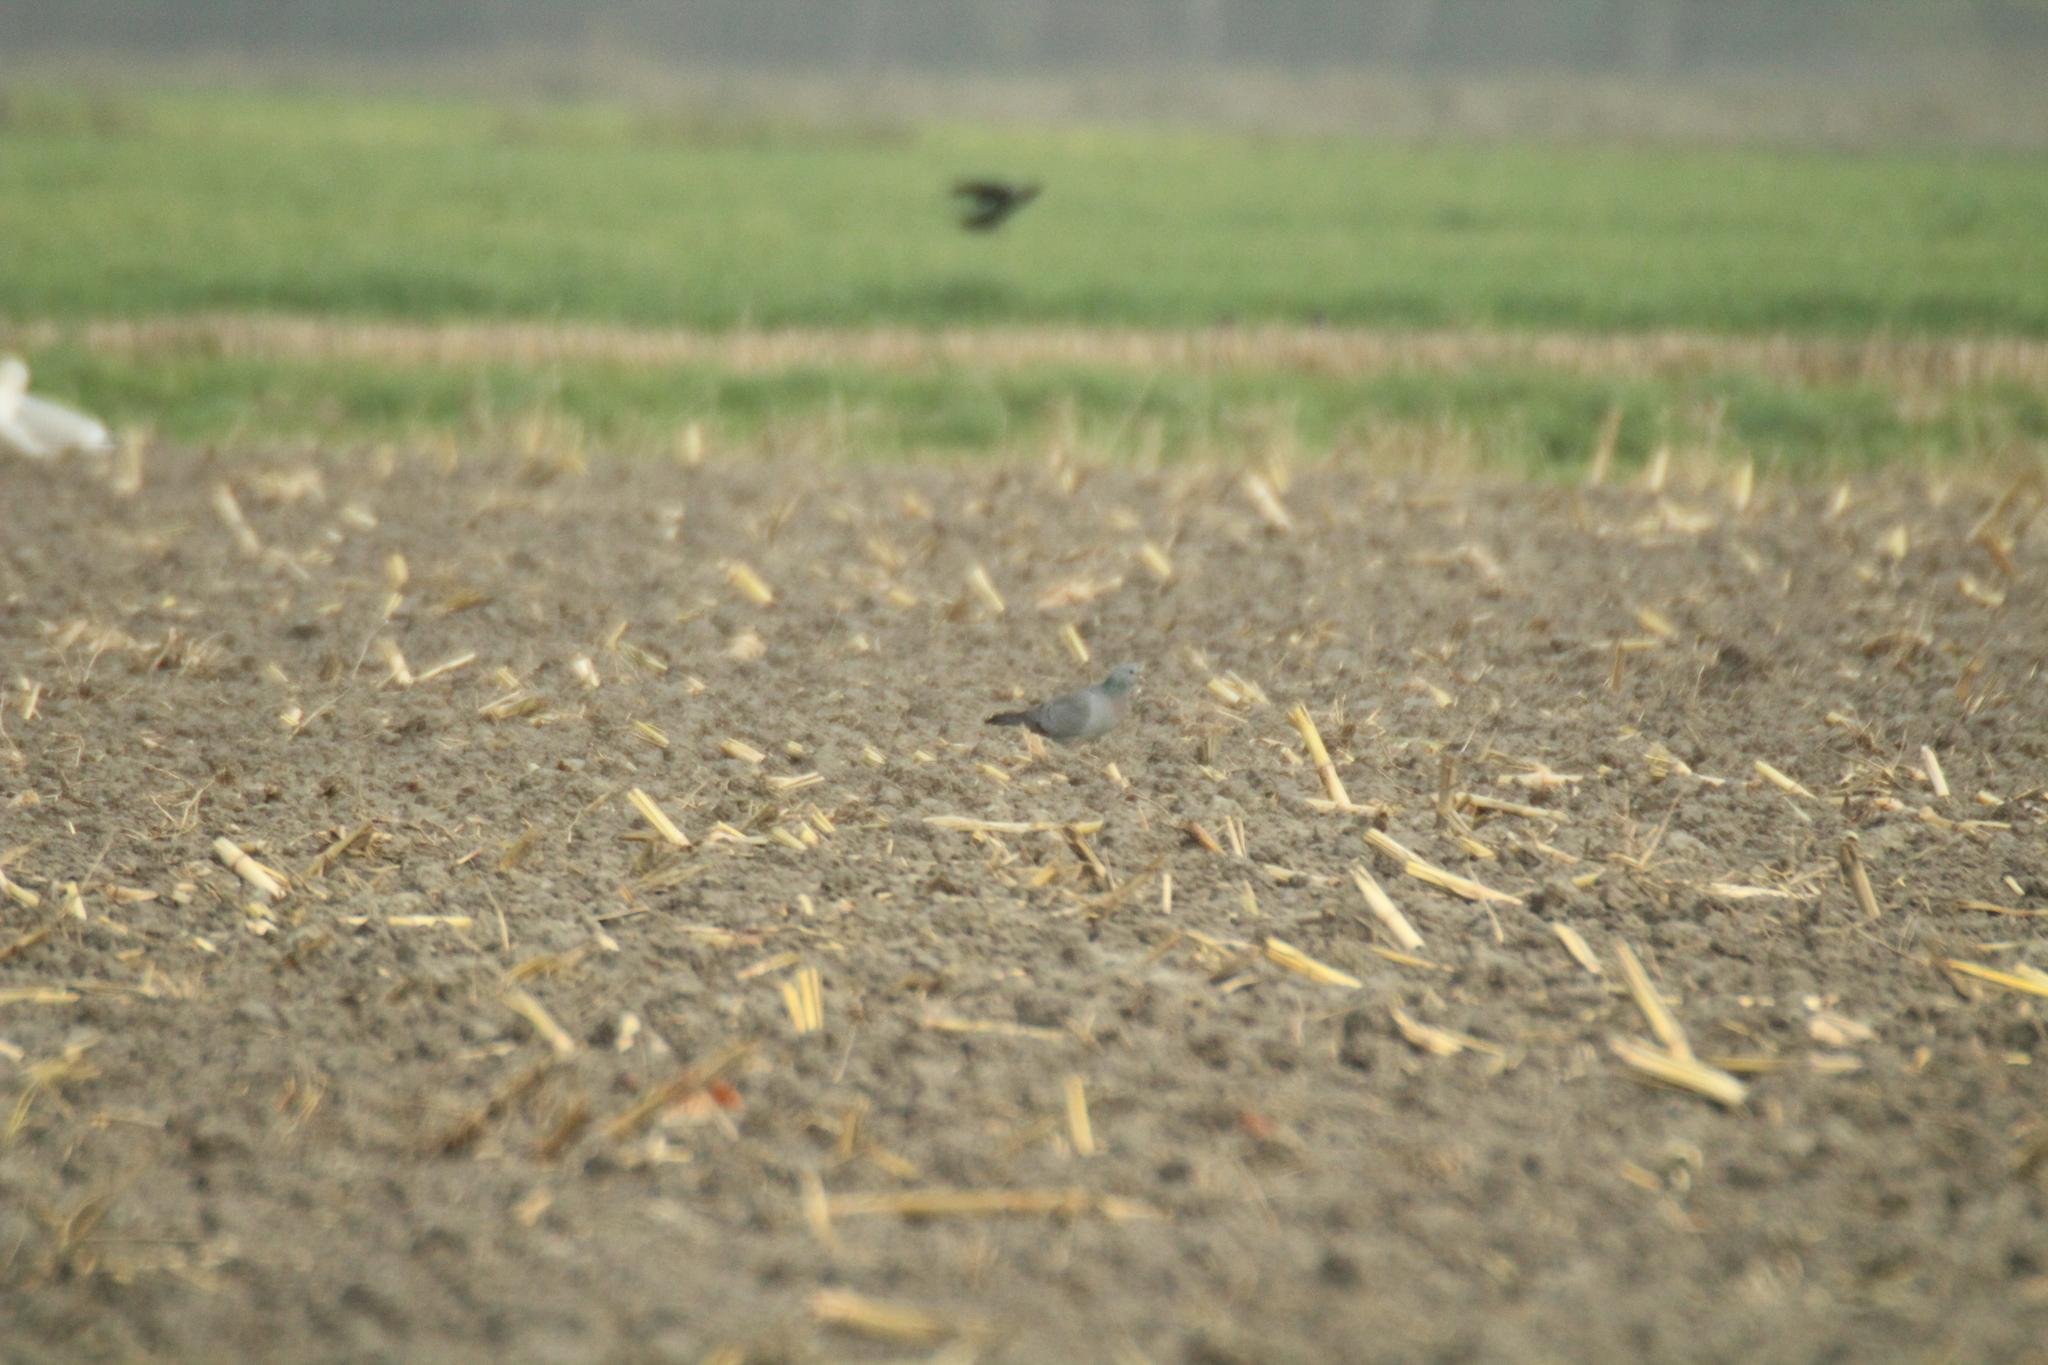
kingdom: Animalia
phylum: Chordata
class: Aves
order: Columbiformes
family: Columbidae
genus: Columba
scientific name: Columba oenas
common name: Stock dove
